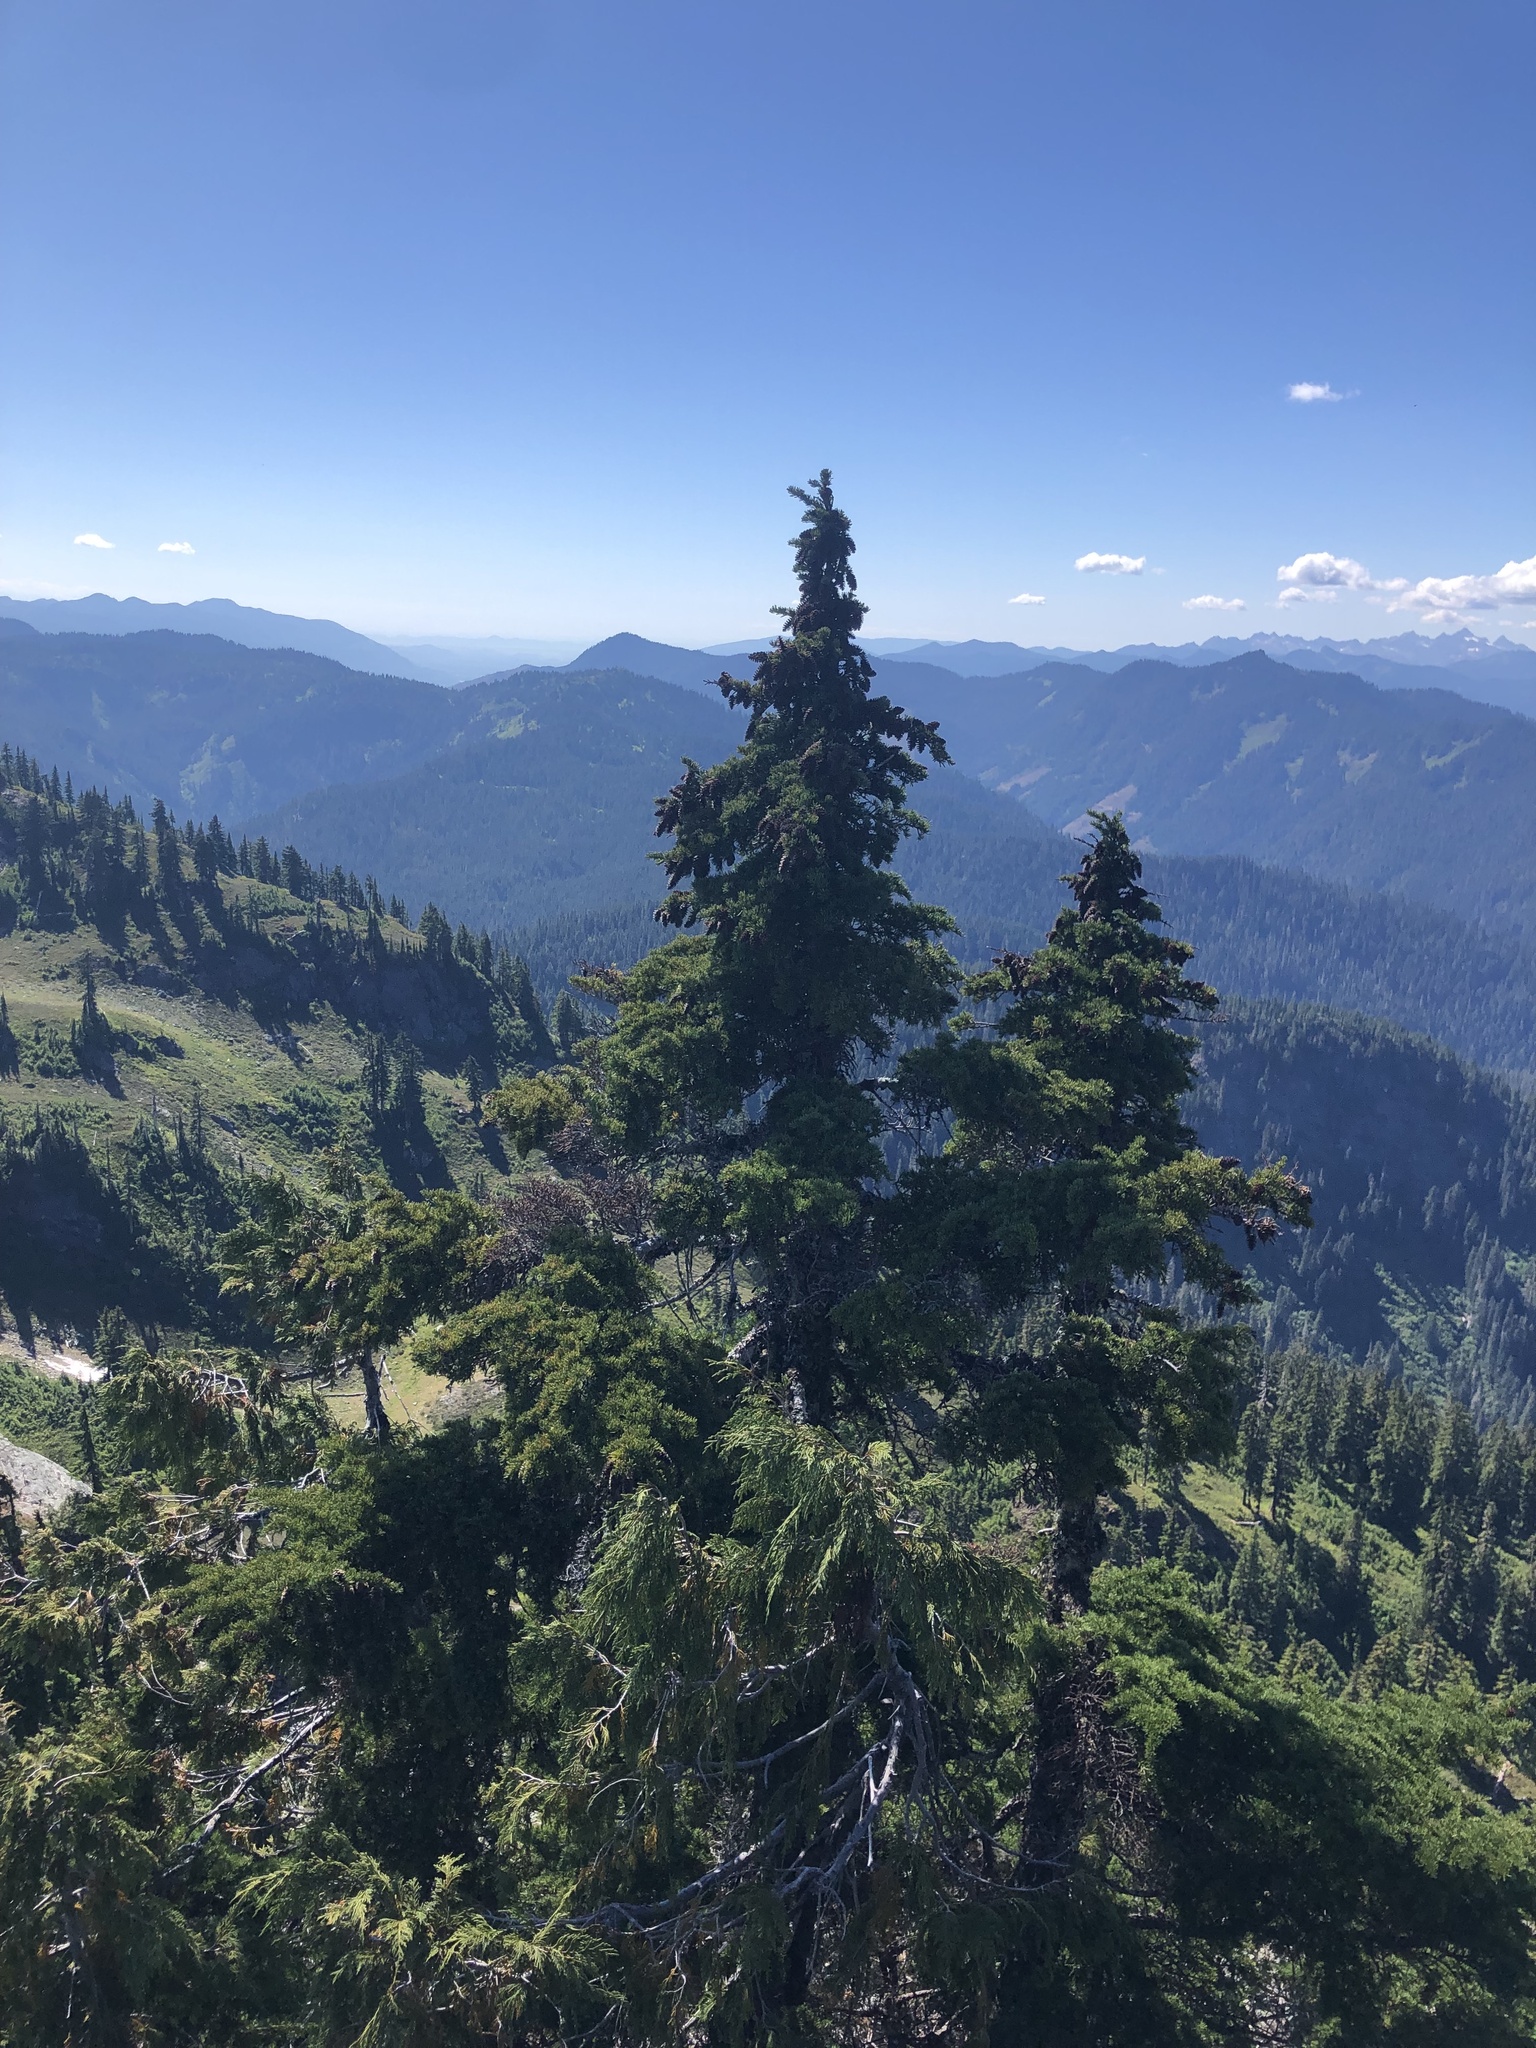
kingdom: Plantae
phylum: Tracheophyta
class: Pinopsida
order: Pinales
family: Pinaceae
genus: Tsuga
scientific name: Tsuga mertensiana
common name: Mountain hemlock
